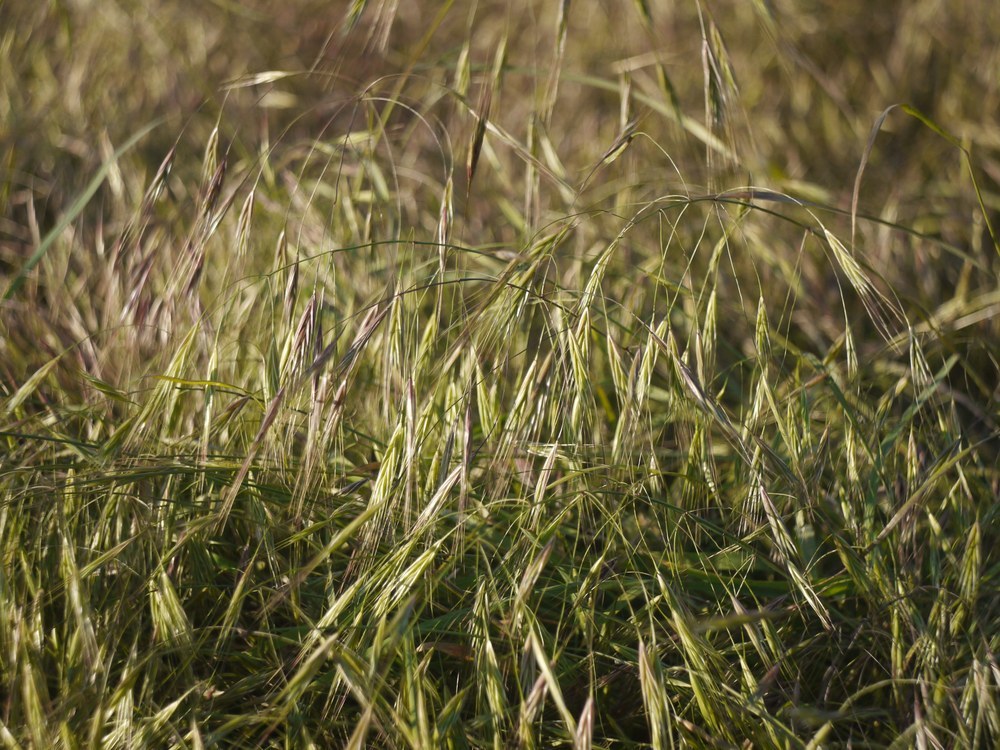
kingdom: Plantae
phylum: Tracheophyta
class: Liliopsida
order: Poales
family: Poaceae
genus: Bromus
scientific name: Bromus sterilis
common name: Poverty brome
